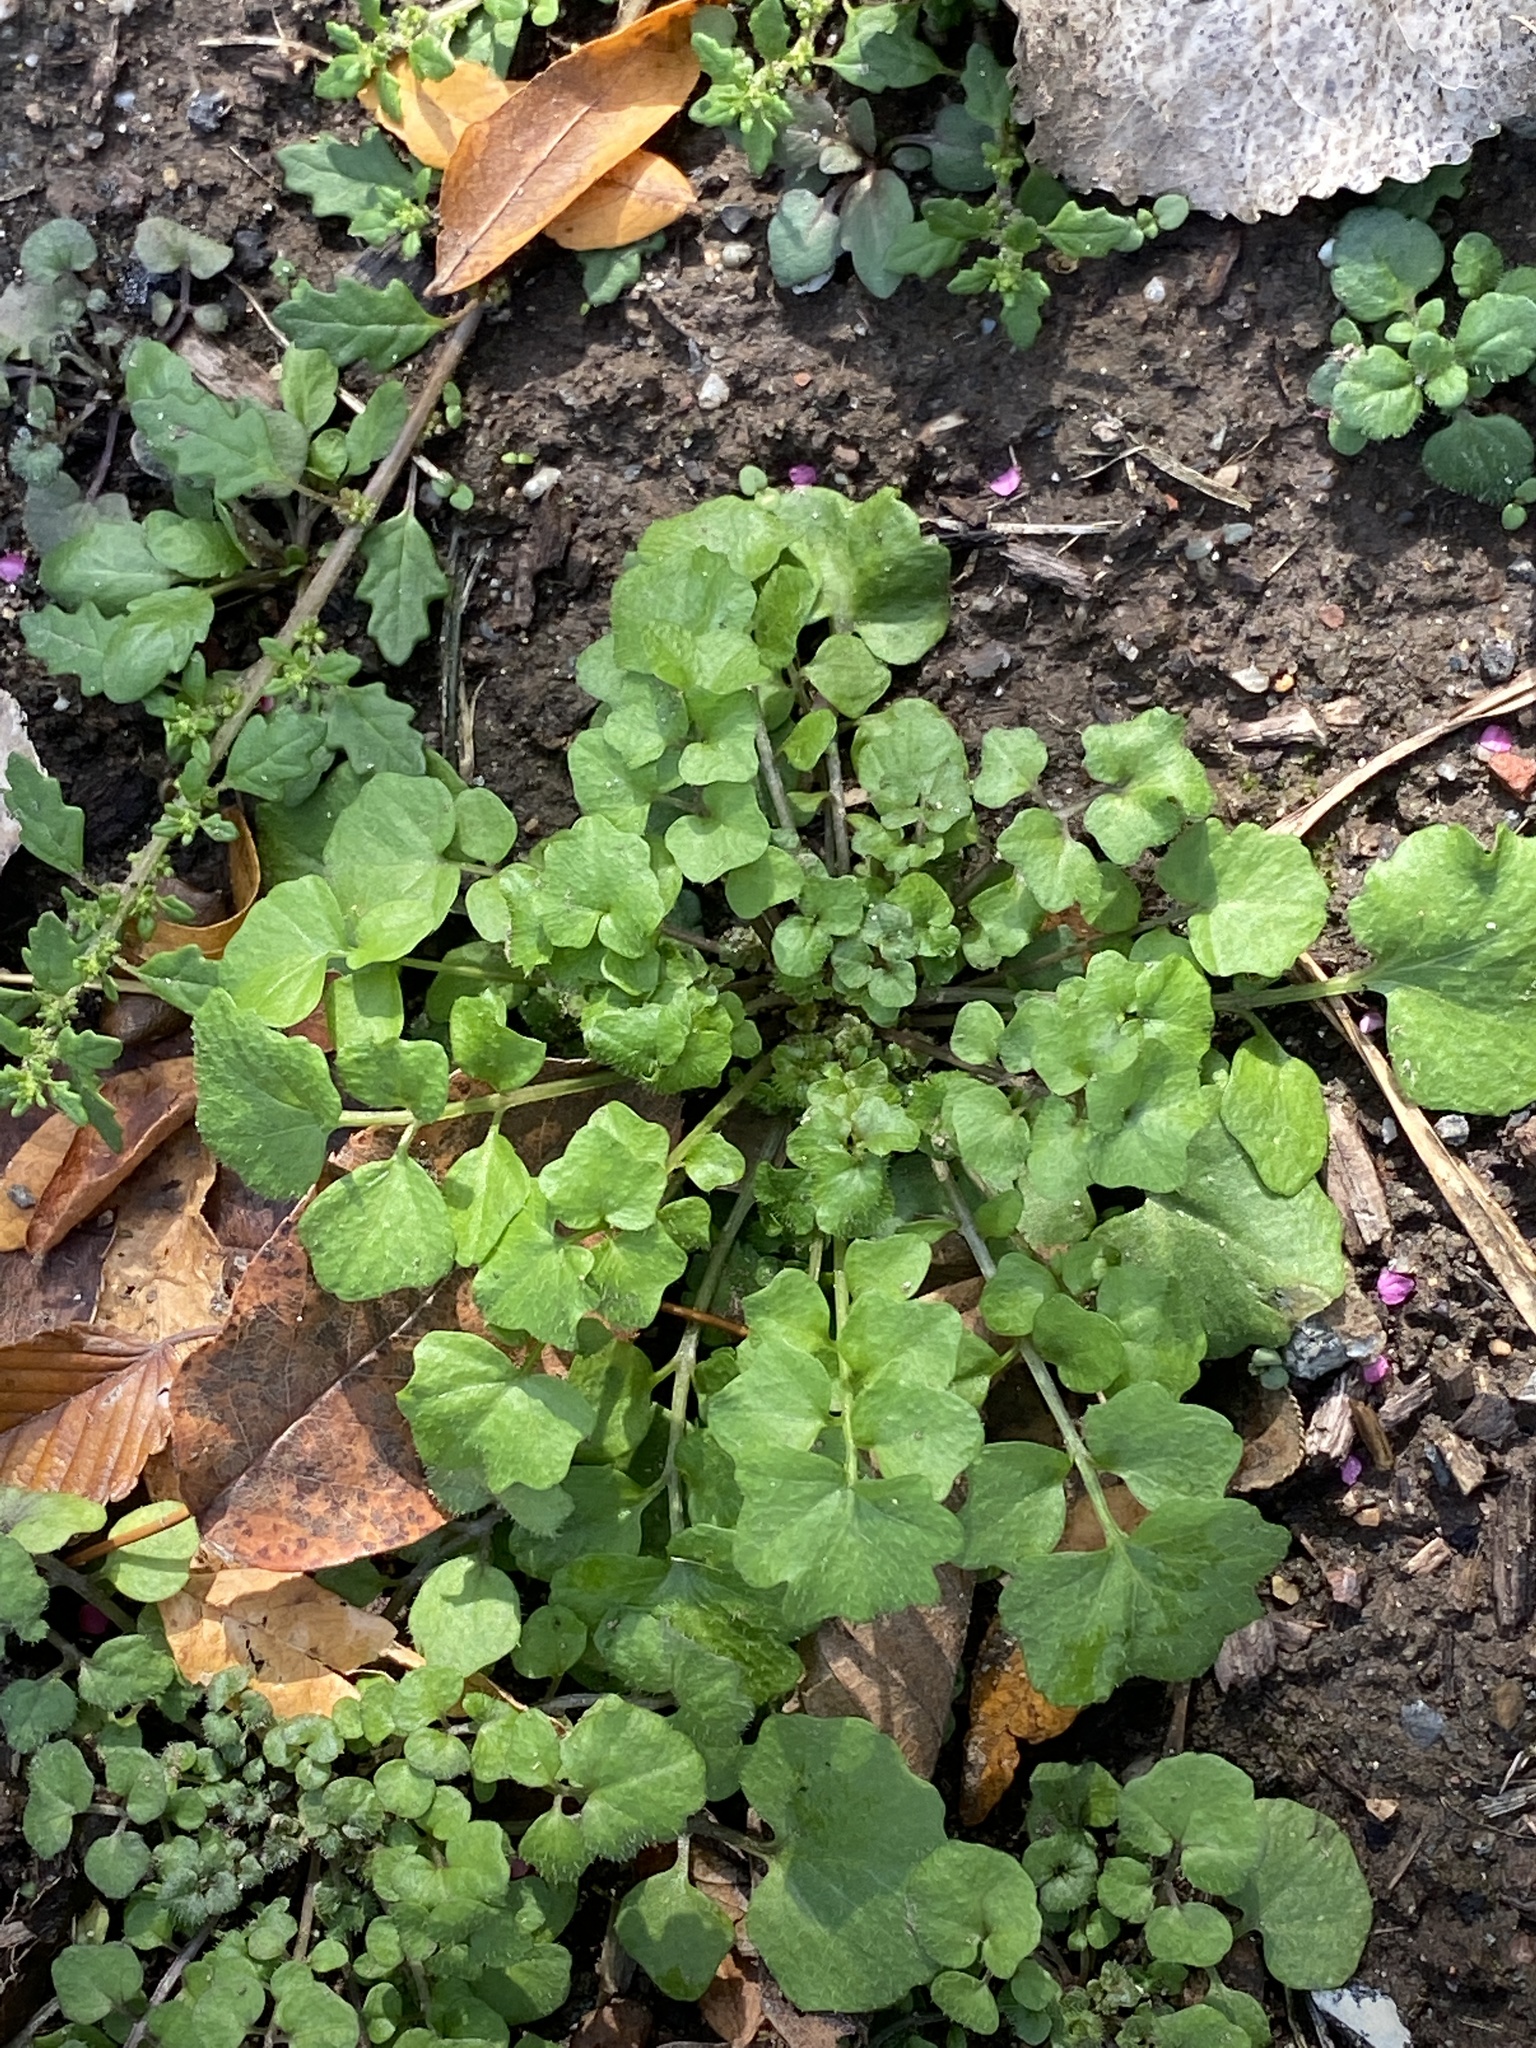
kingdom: Plantae
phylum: Tracheophyta
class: Magnoliopsida
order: Brassicales
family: Brassicaceae
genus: Cardamine
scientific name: Cardamine hirsuta
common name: Hairy bittercress
